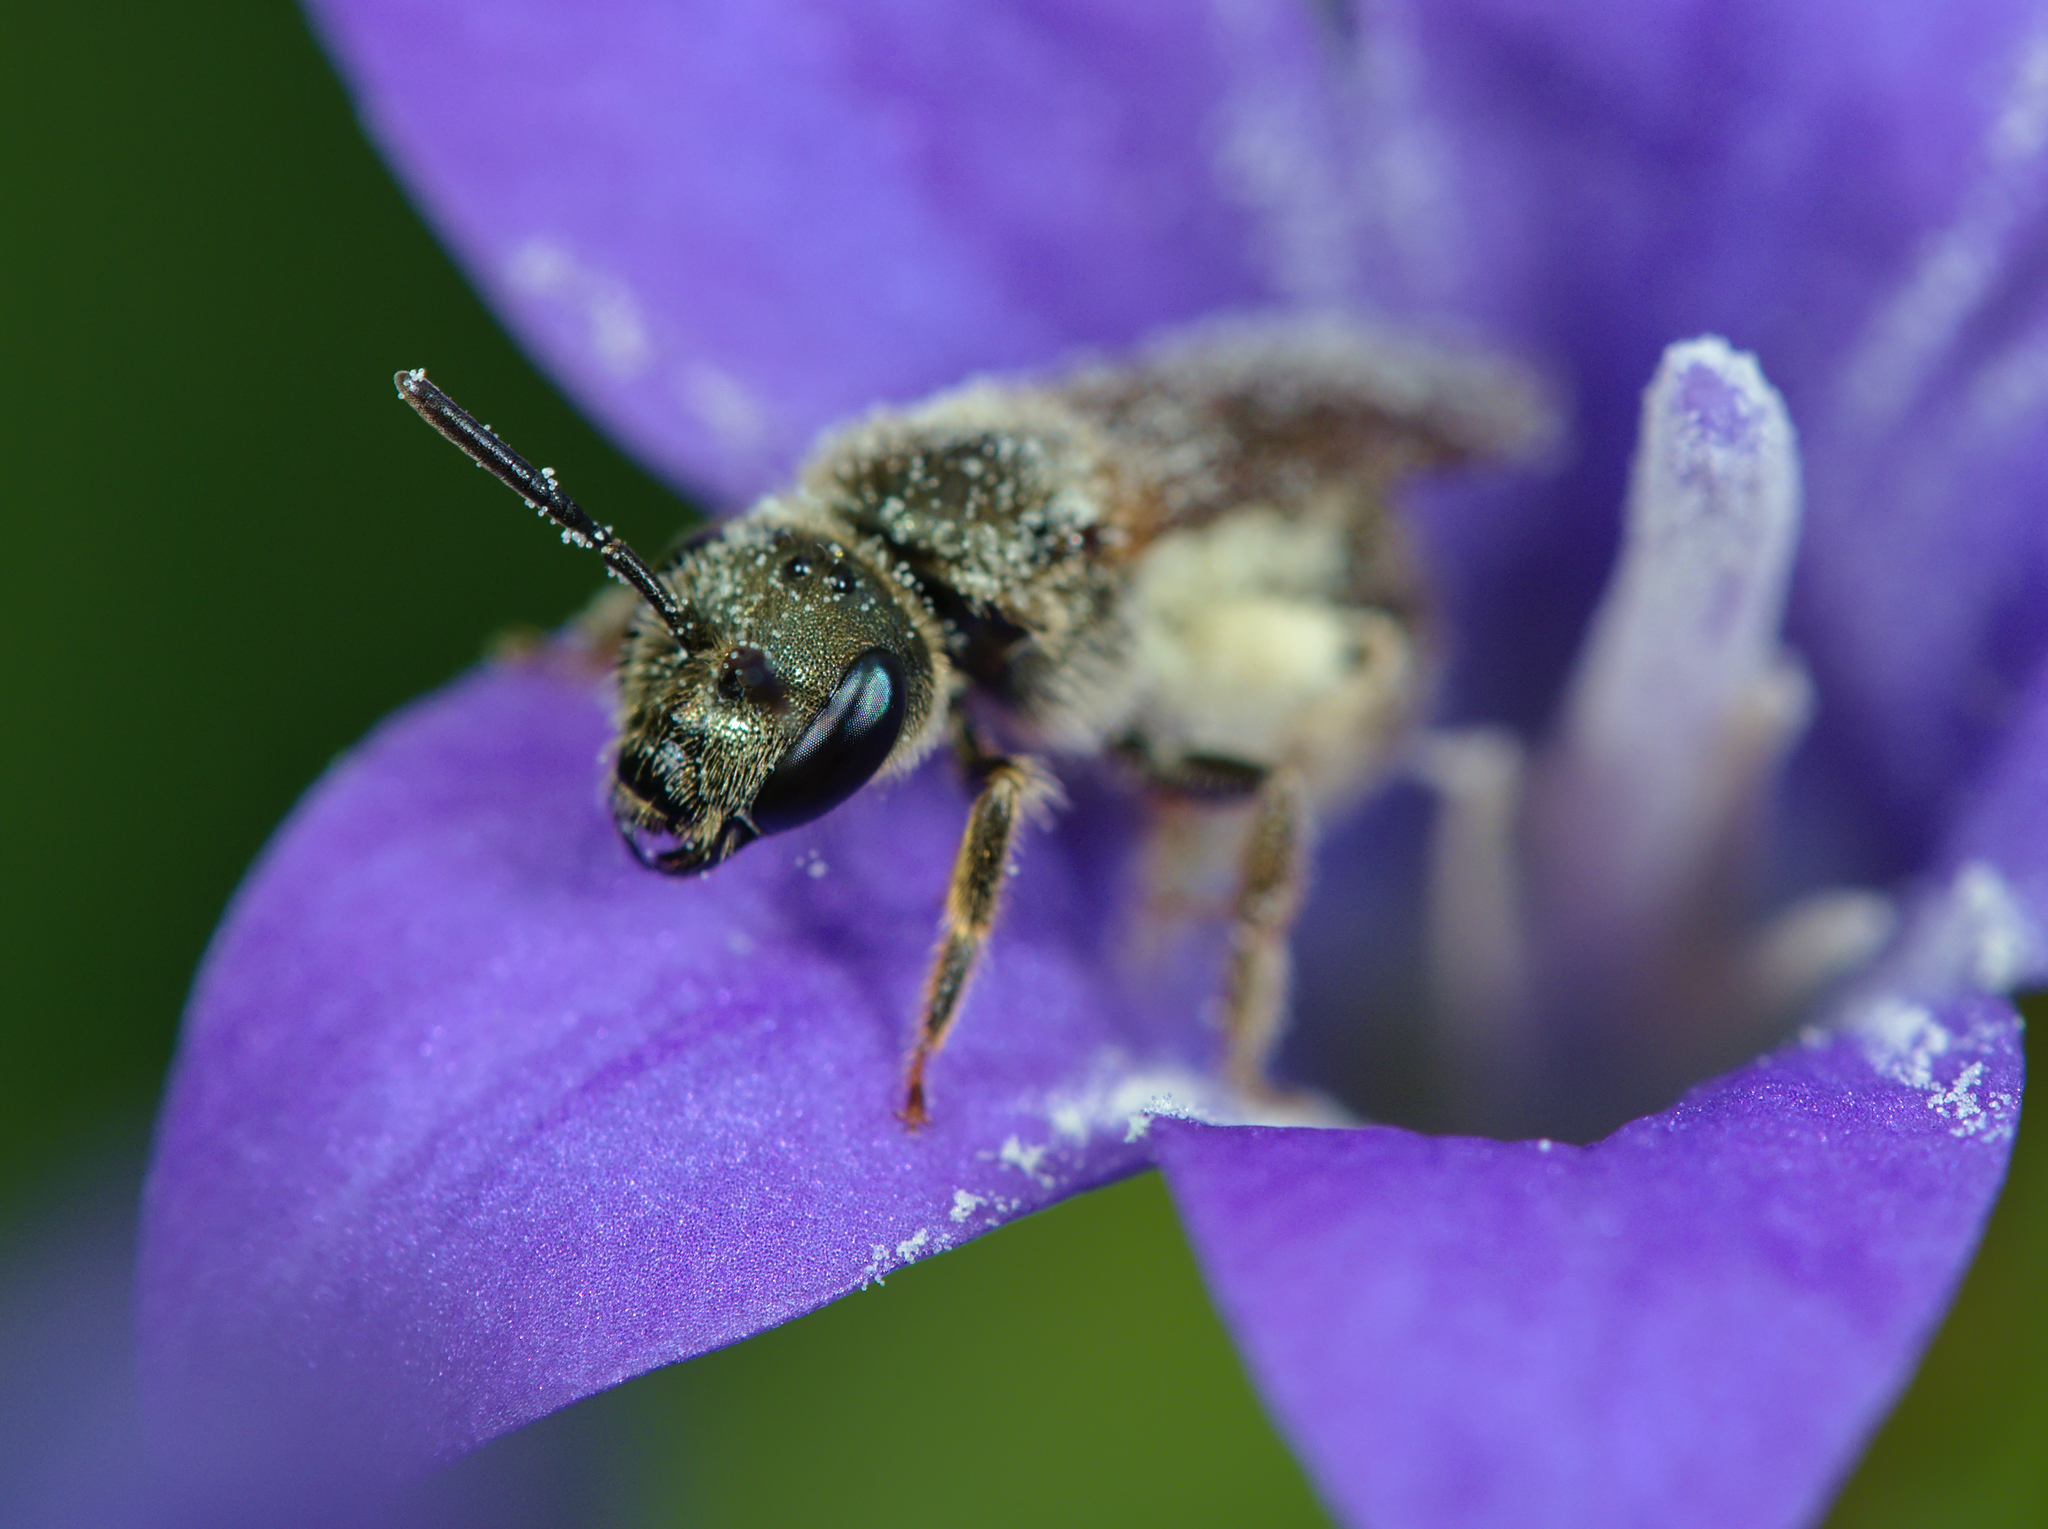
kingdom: Animalia
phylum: Arthropoda
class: Insecta
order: Hymenoptera
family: Halictidae
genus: Halictus
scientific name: Halictus tumulorum
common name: Bronze furrow bee
